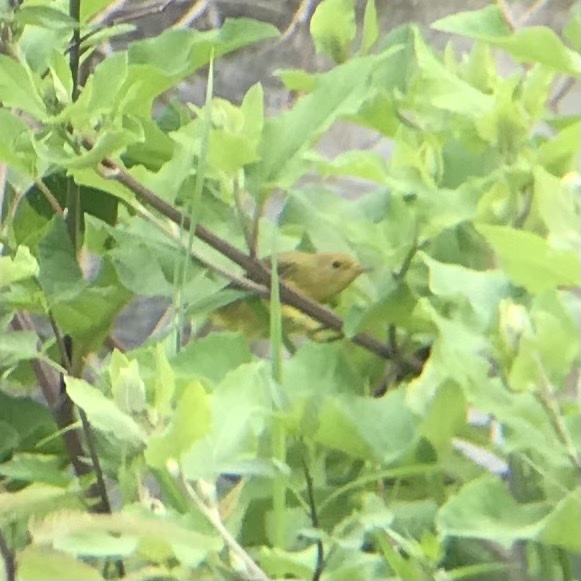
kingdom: Animalia
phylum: Chordata
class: Aves
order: Passeriformes
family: Parulidae
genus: Setophaga
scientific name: Setophaga petechia
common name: Yellow warbler
